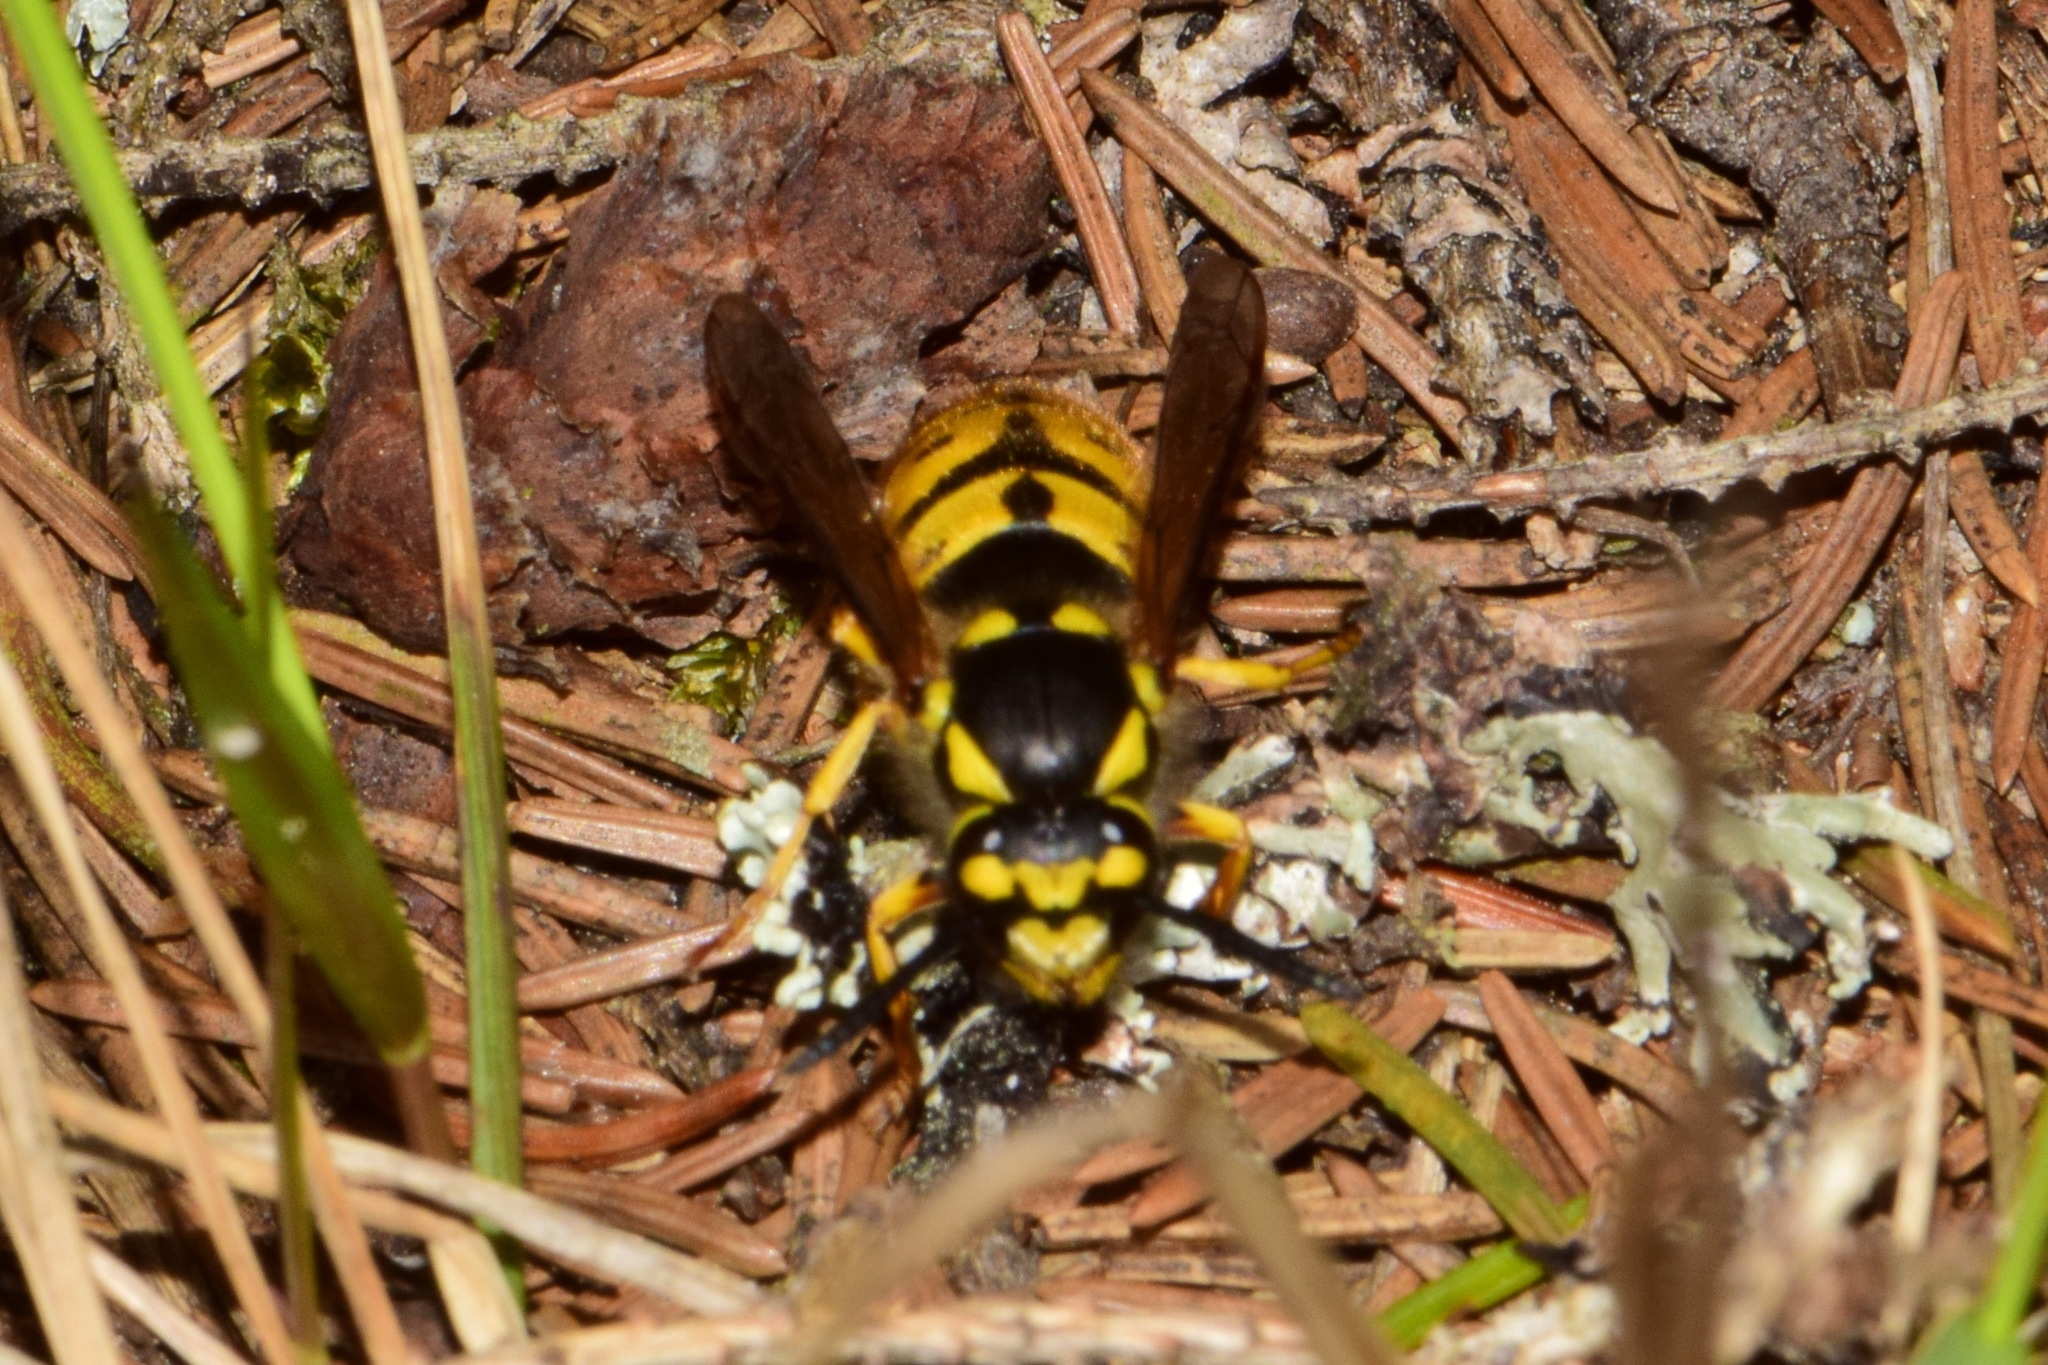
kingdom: Animalia
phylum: Arthropoda
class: Insecta
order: Hymenoptera
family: Vespidae
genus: Vespula
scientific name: Vespula germanica
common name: German wasp
